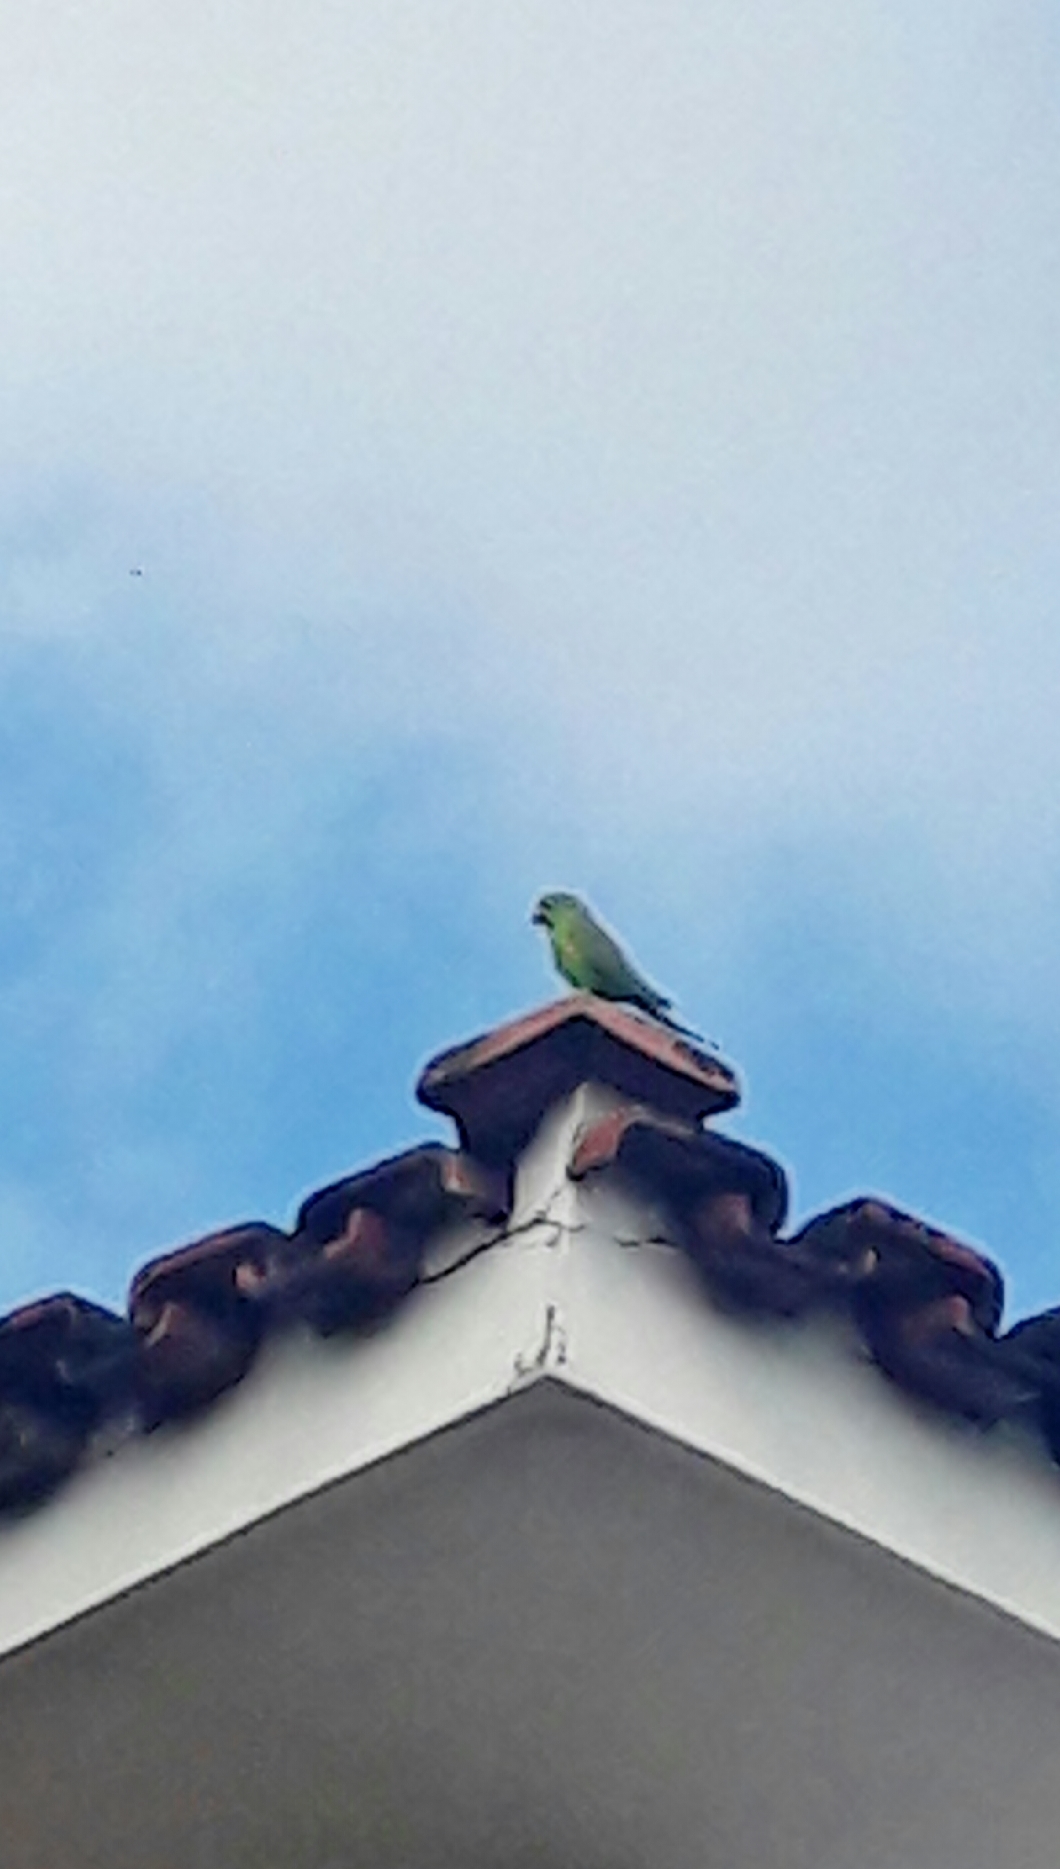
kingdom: Animalia
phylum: Chordata
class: Aves
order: Psittaciformes
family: Psittacidae
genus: Brotogeris
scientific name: Brotogeris chiriri
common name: Yellow-chevroned parakeet
